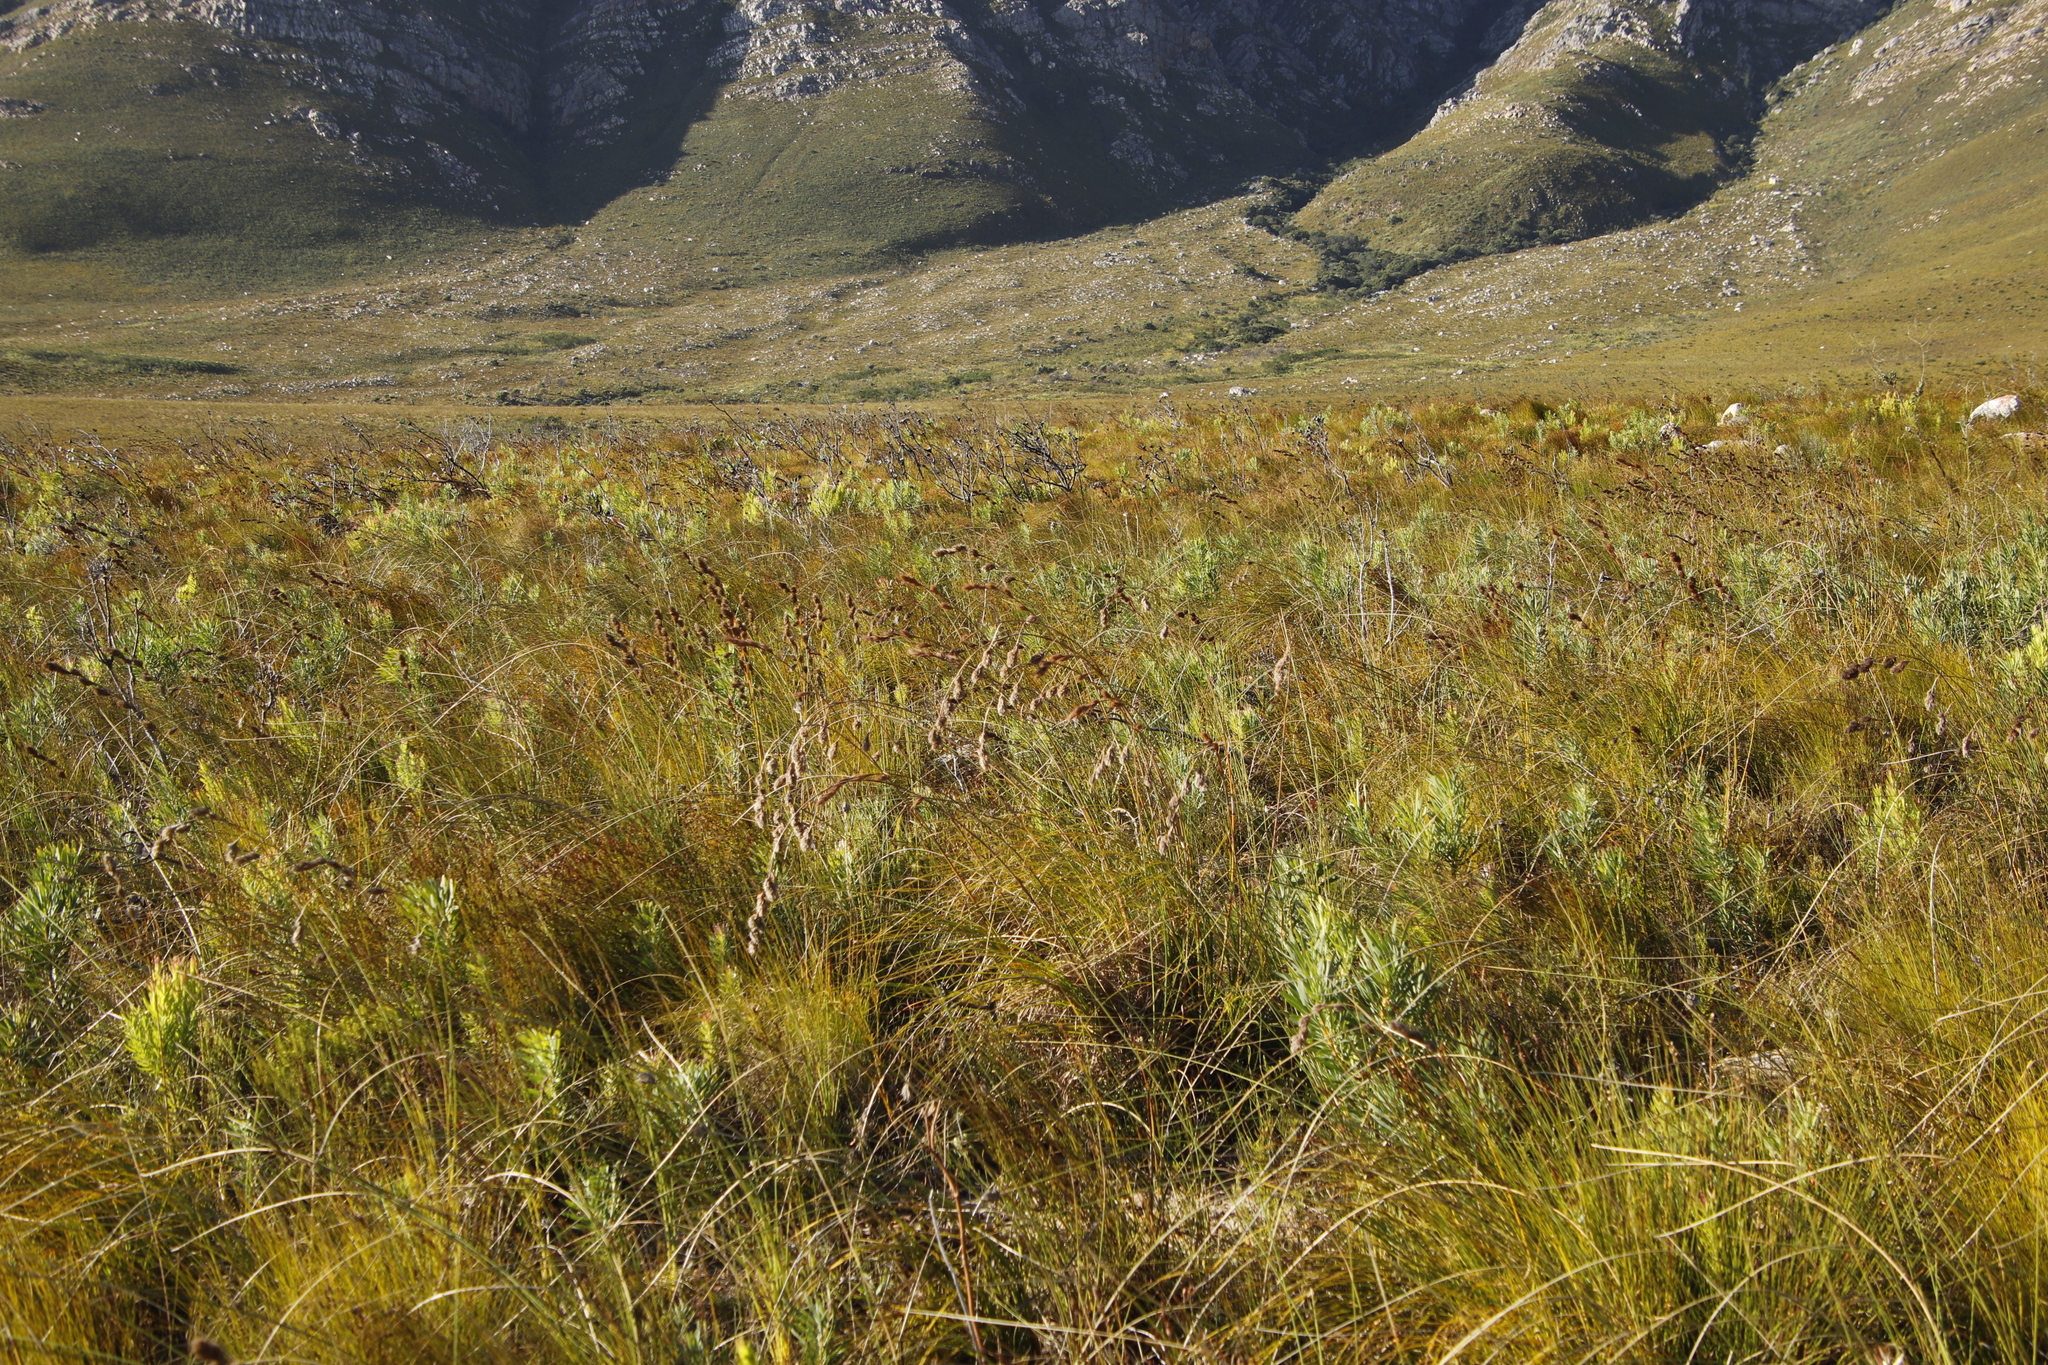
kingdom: Plantae
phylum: Tracheophyta
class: Liliopsida
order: Poales
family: Cyperaceae
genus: Tetraria
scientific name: Tetraria bromoides
